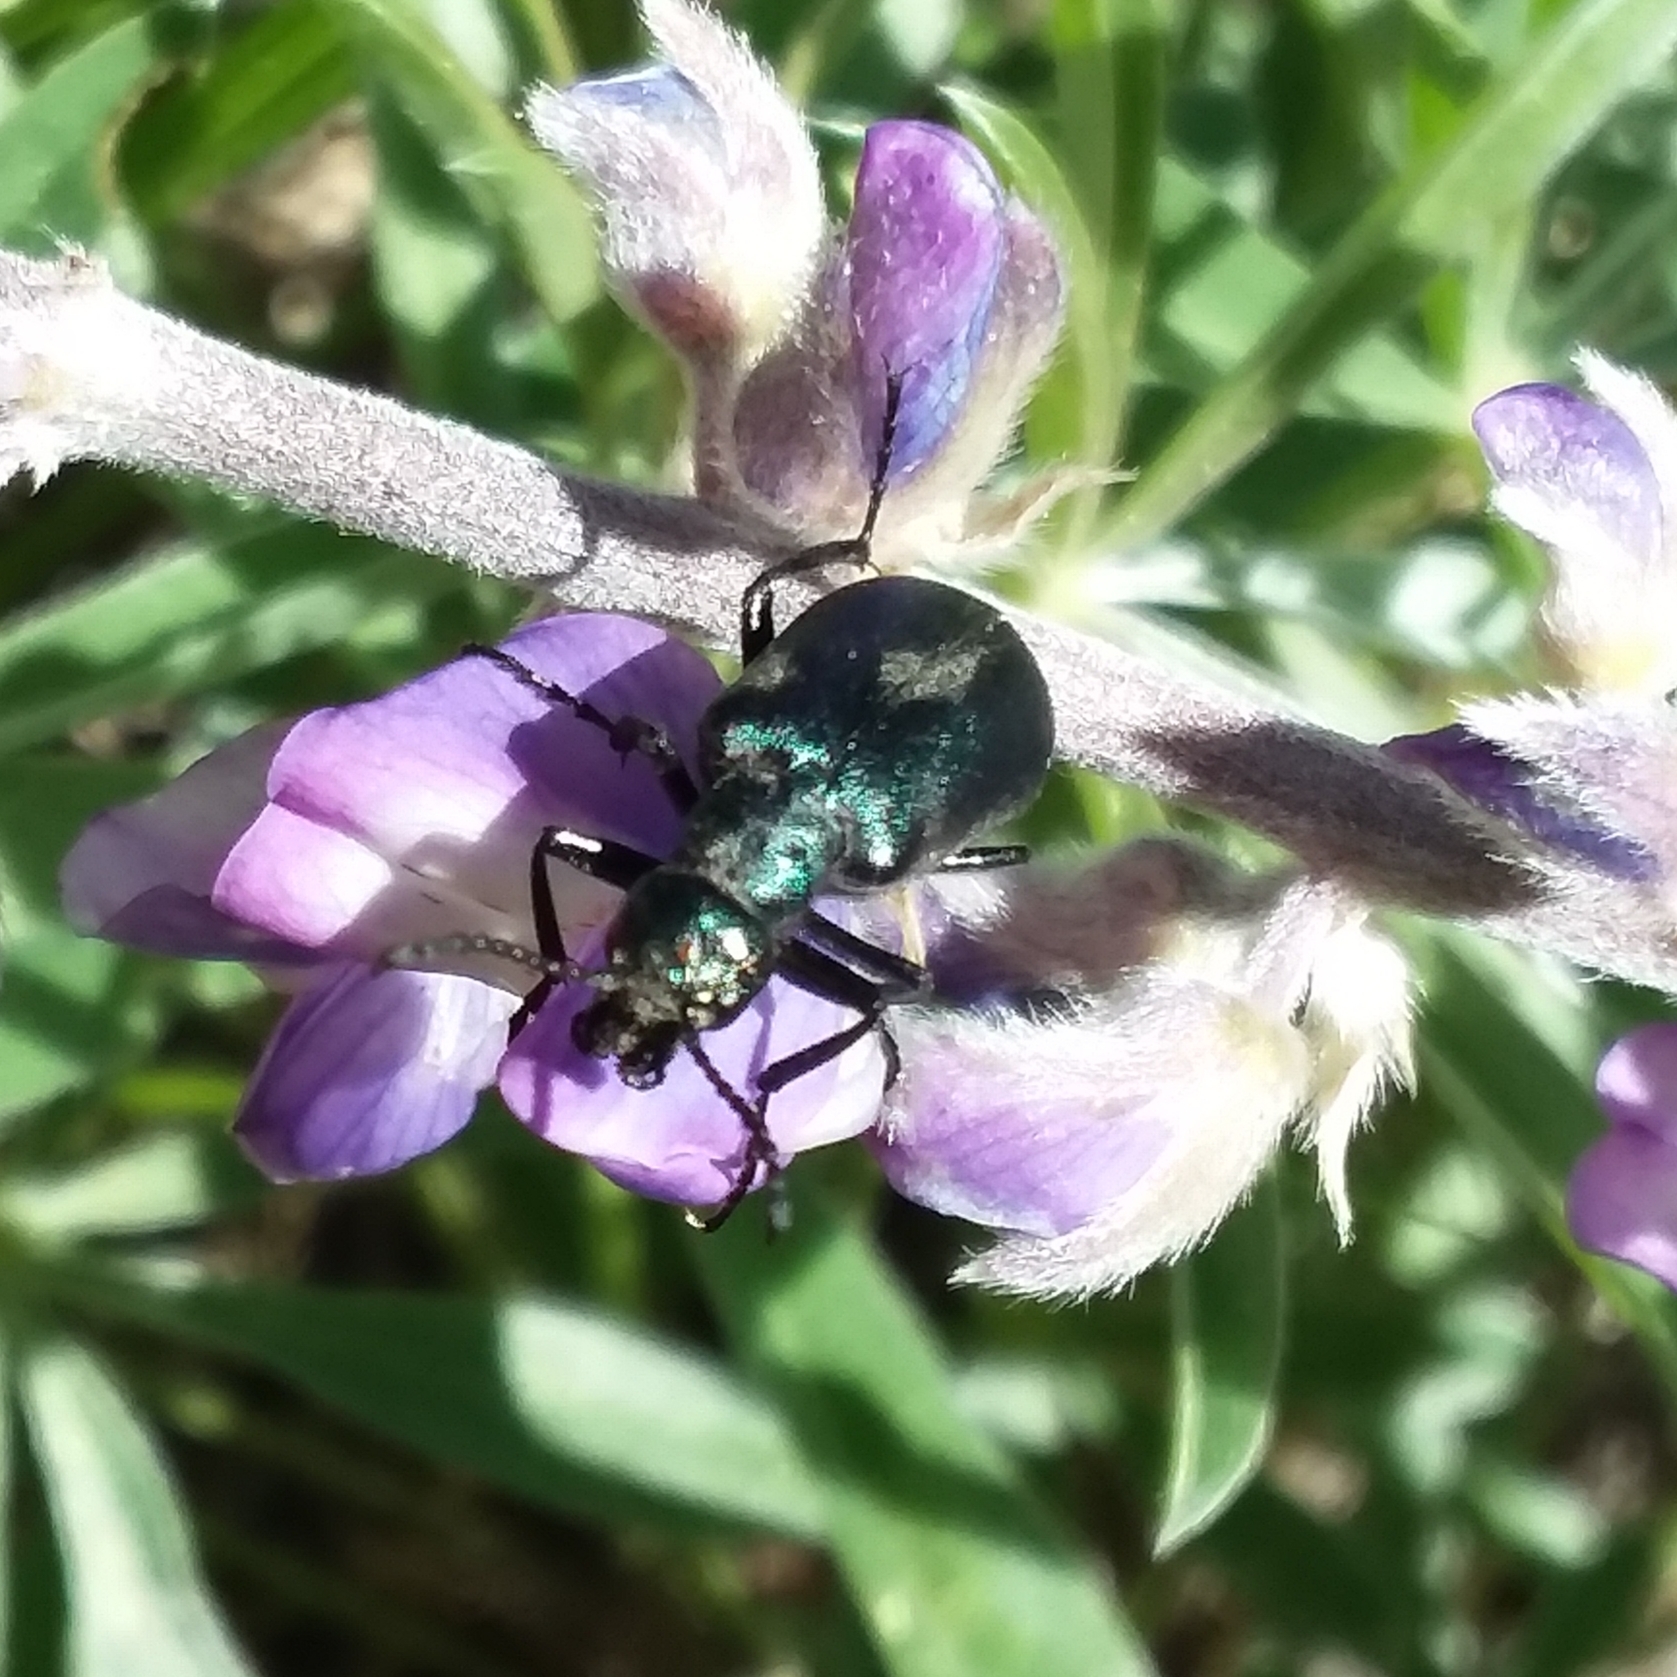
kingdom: Animalia
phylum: Arthropoda
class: Insecta
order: Coleoptera
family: Meloidae
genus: Lytta
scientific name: Lytta stygica
